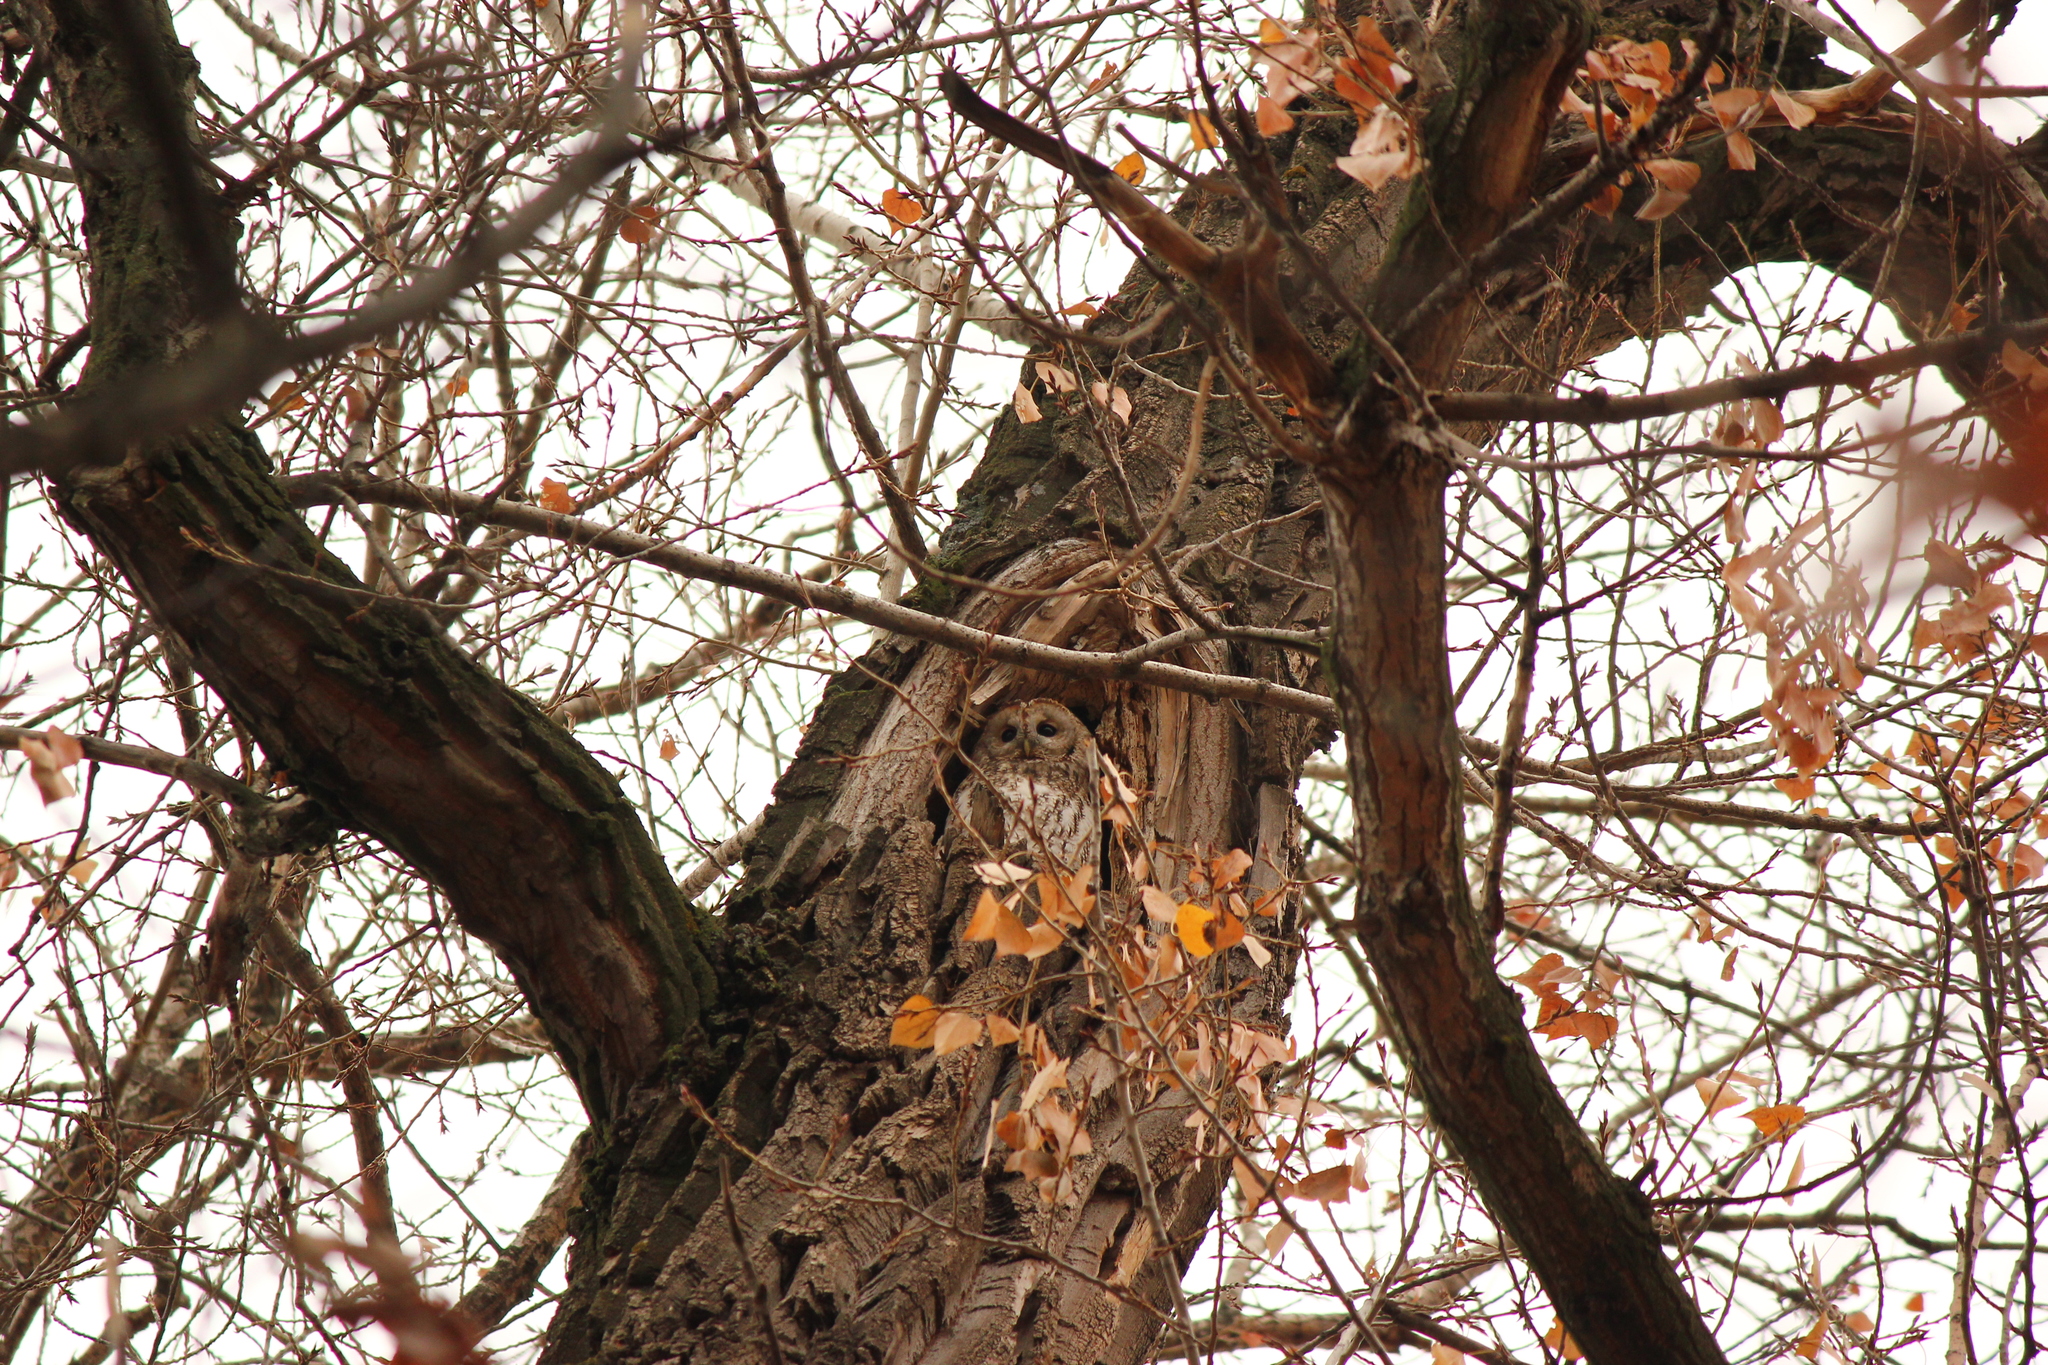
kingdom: Animalia
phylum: Chordata
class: Aves
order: Strigiformes
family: Strigidae
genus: Strix
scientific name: Strix aluco
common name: Tawny owl
